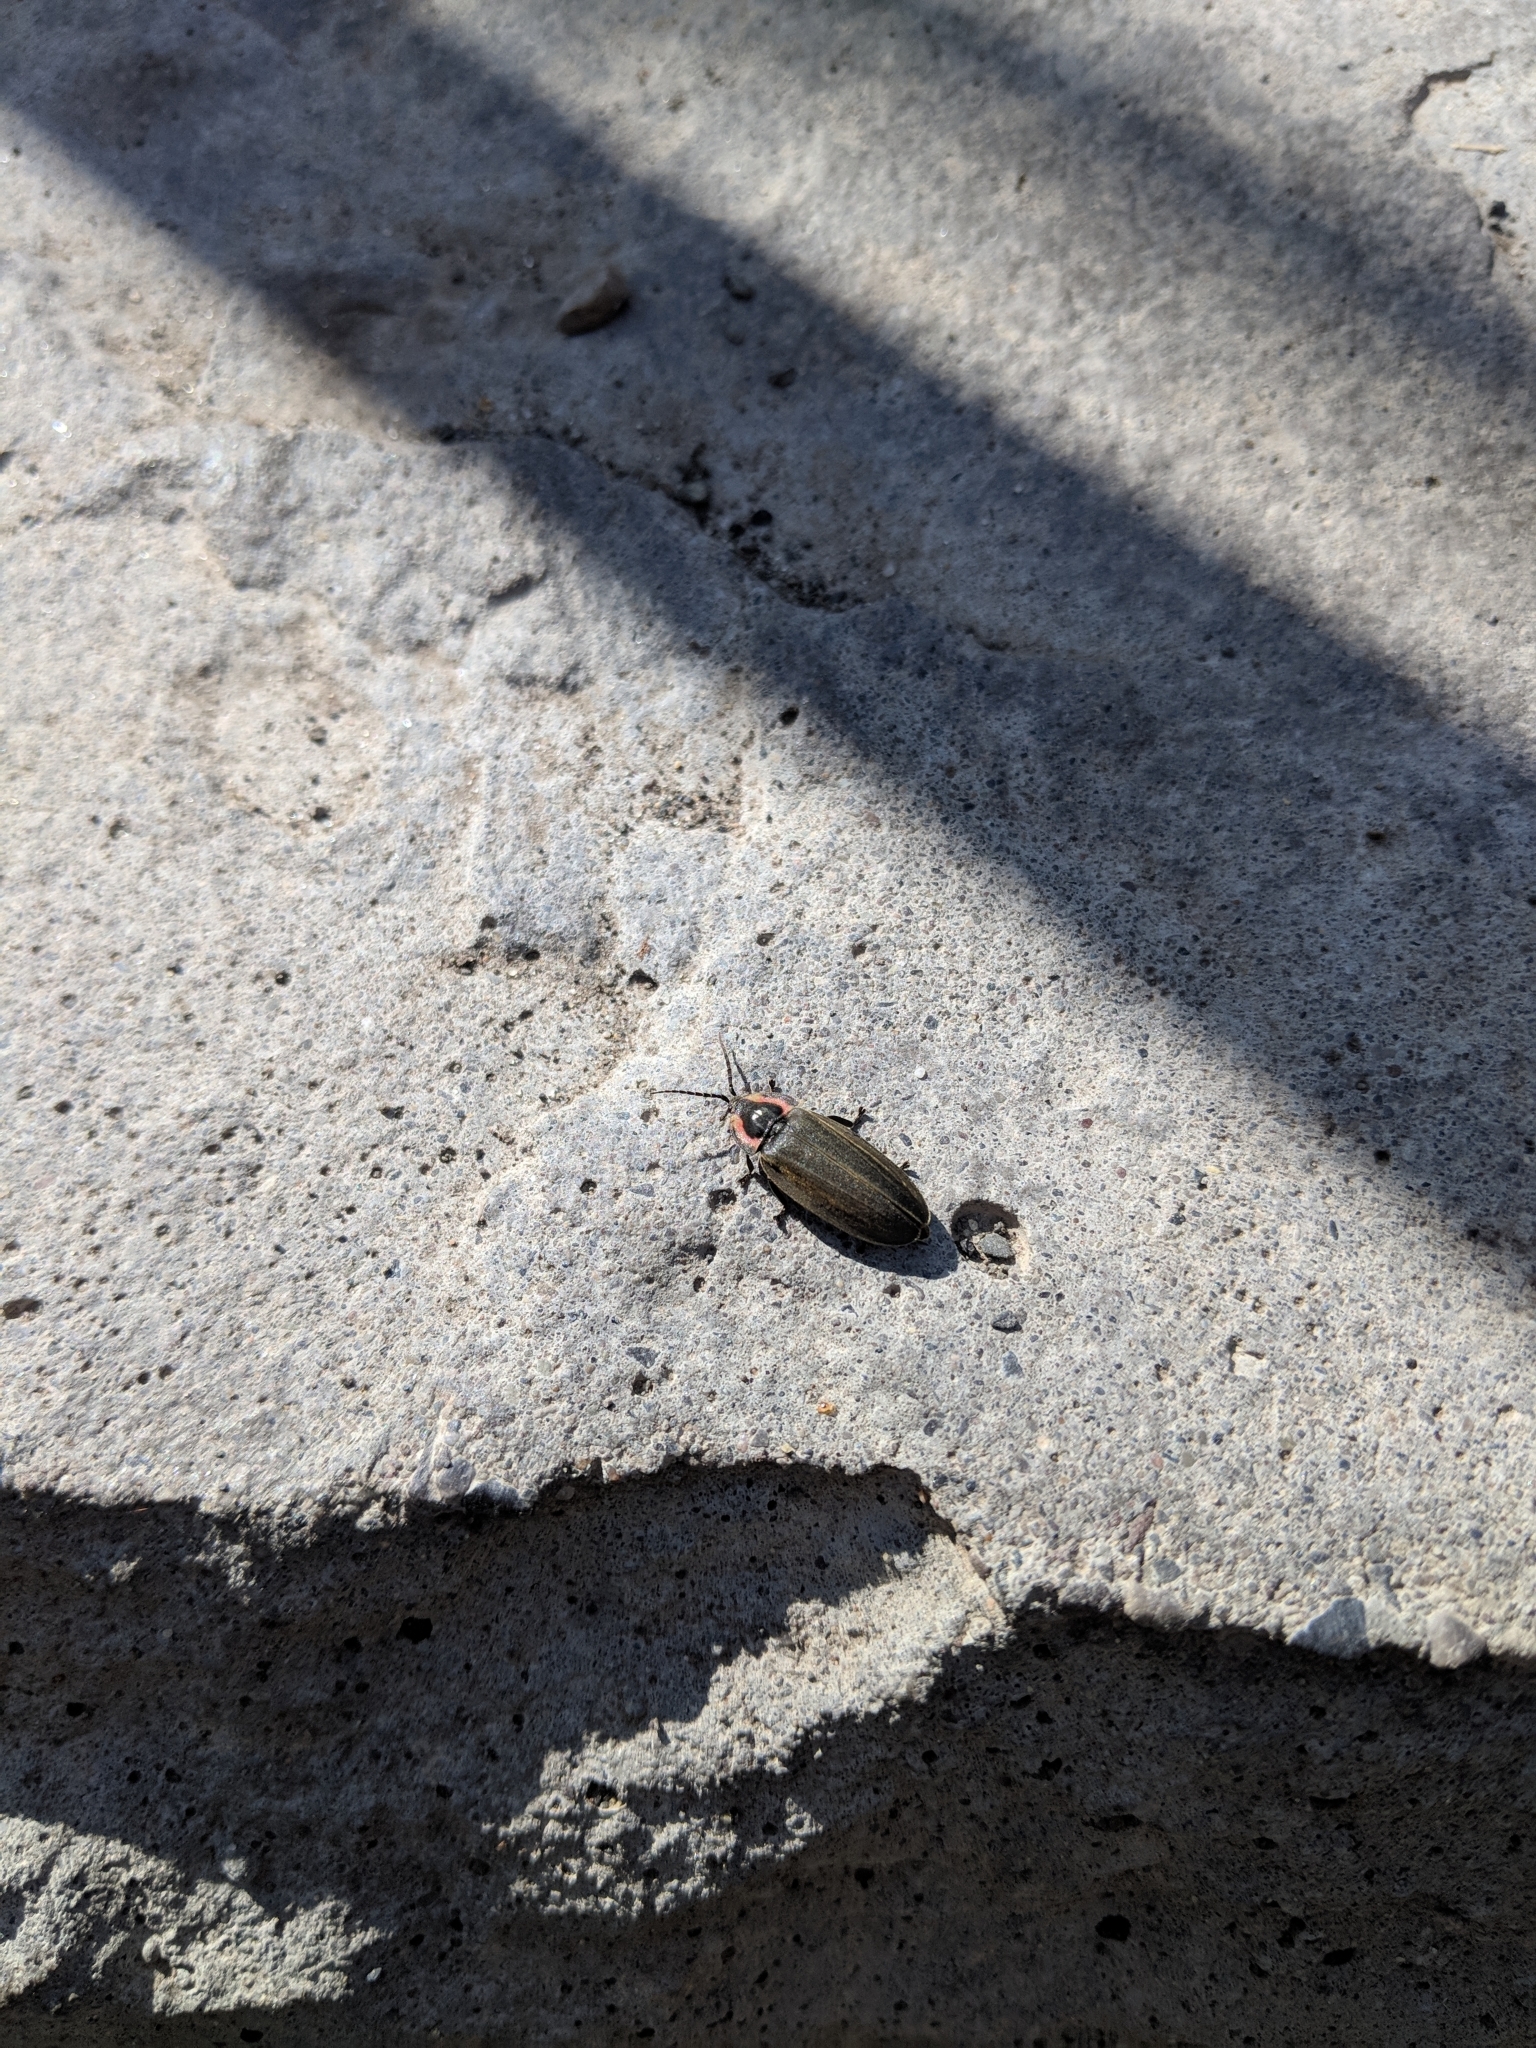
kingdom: Animalia
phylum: Arthropoda
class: Insecta
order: Coleoptera
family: Lampyridae
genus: Photinus
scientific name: Photinus corrusca
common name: Winter firefly
